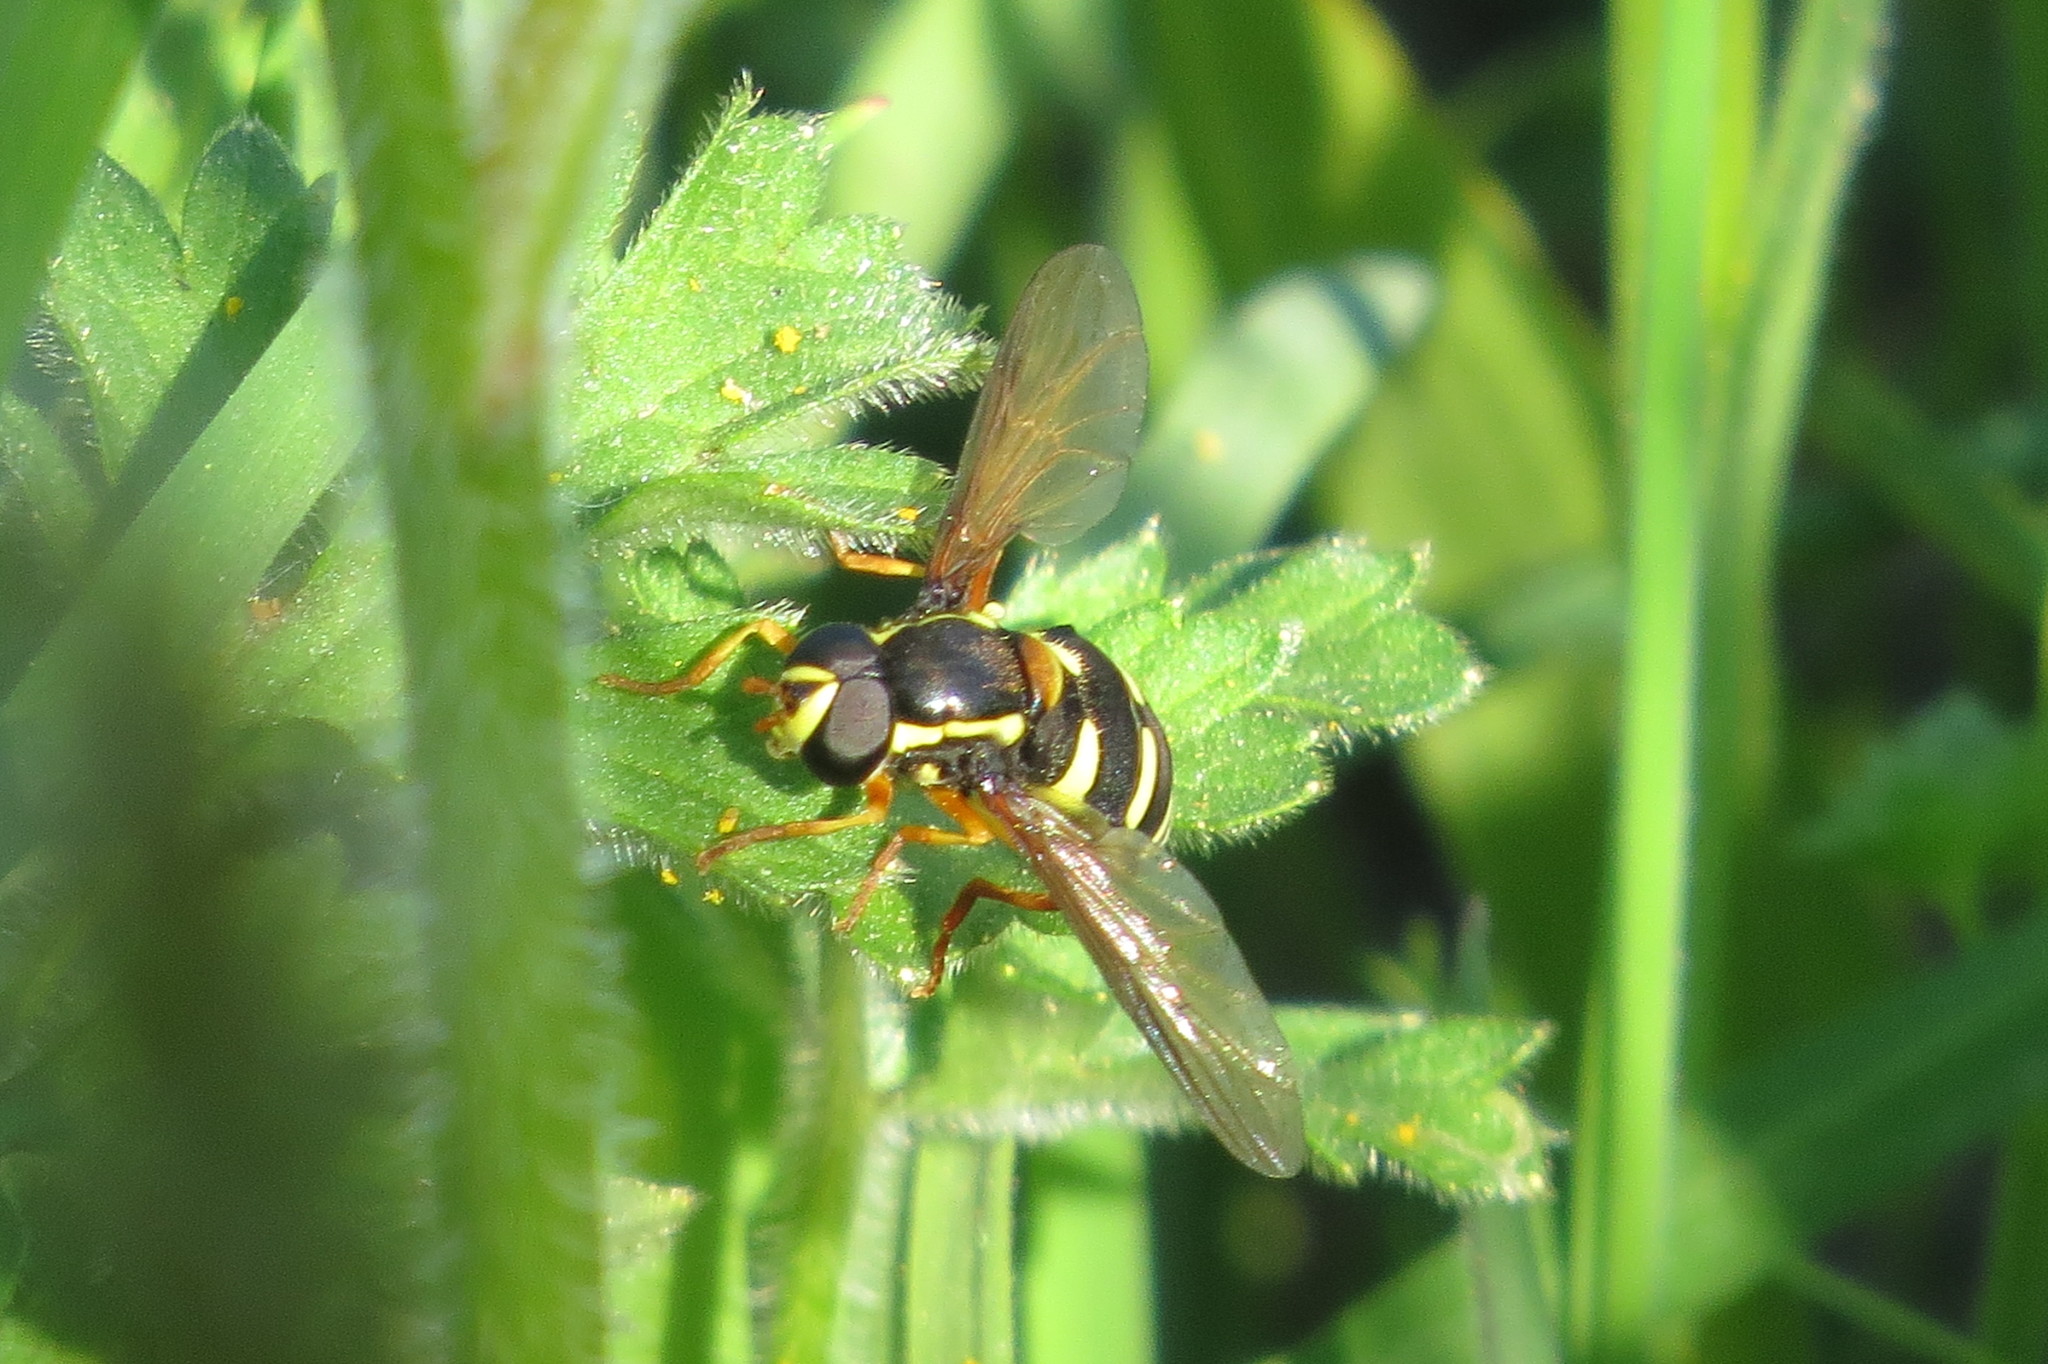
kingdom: Animalia
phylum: Arthropoda
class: Insecta
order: Diptera
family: Syrphidae
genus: Philhelius
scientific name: Philhelius citrofasciata
